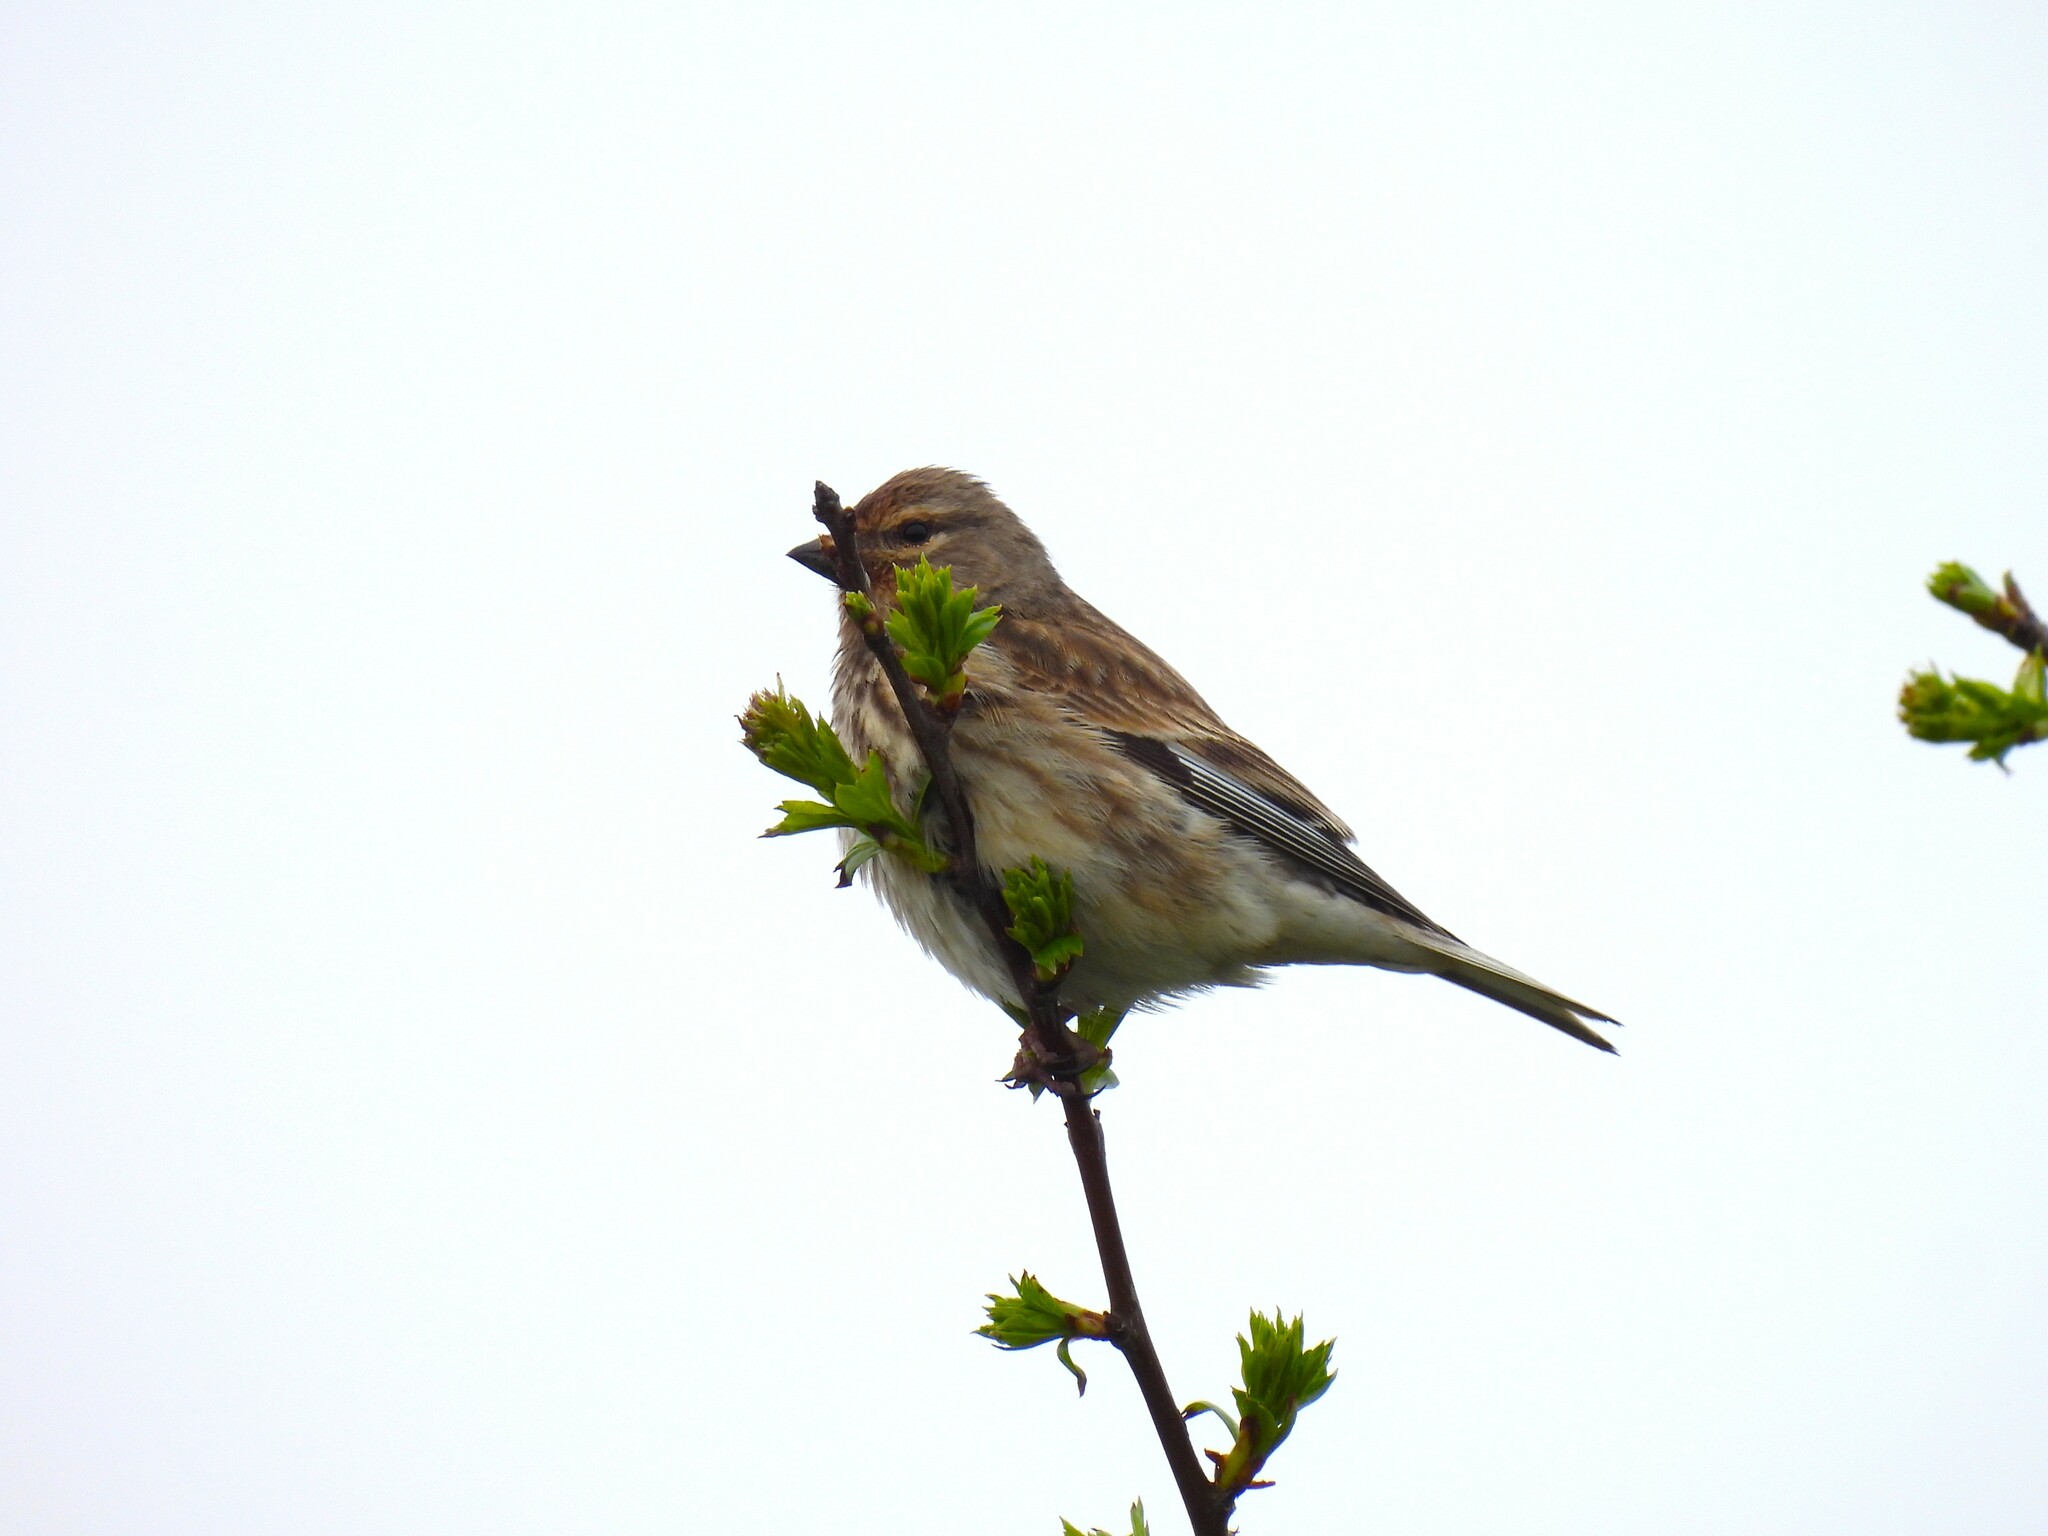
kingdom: Animalia
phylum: Chordata
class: Aves
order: Passeriformes
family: Fringillidae
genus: Linaria
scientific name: Linaria cannabina
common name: Common linnet
